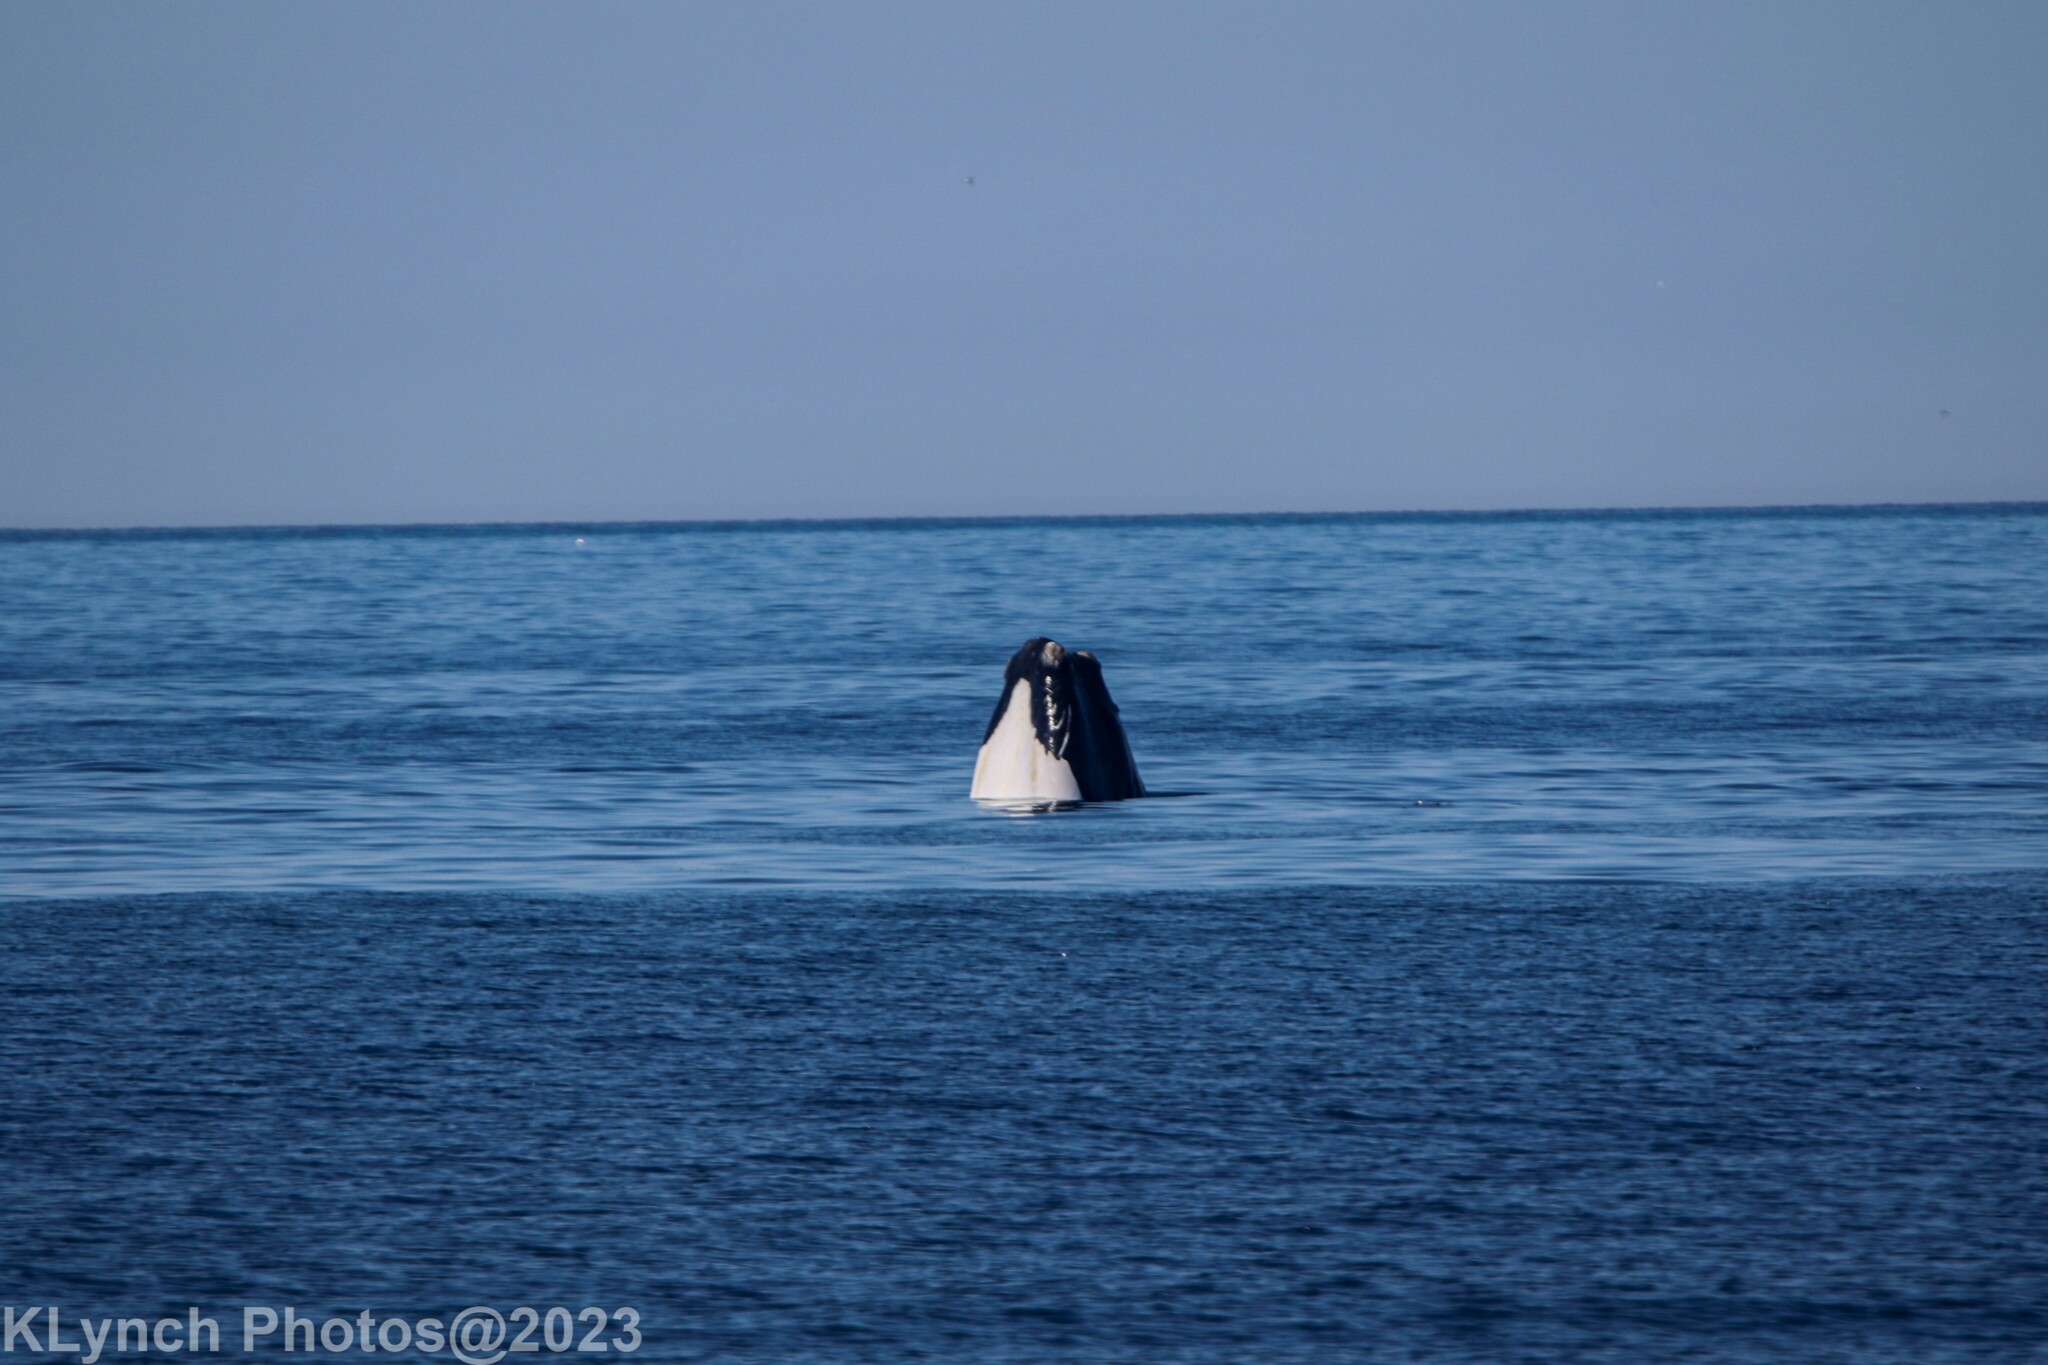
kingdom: Animalia
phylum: Chordata
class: Mammalia
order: Cetacea
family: Balaenidae
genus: Eubalaena
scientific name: Eubalaena glacialis
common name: North atlantic right whale
